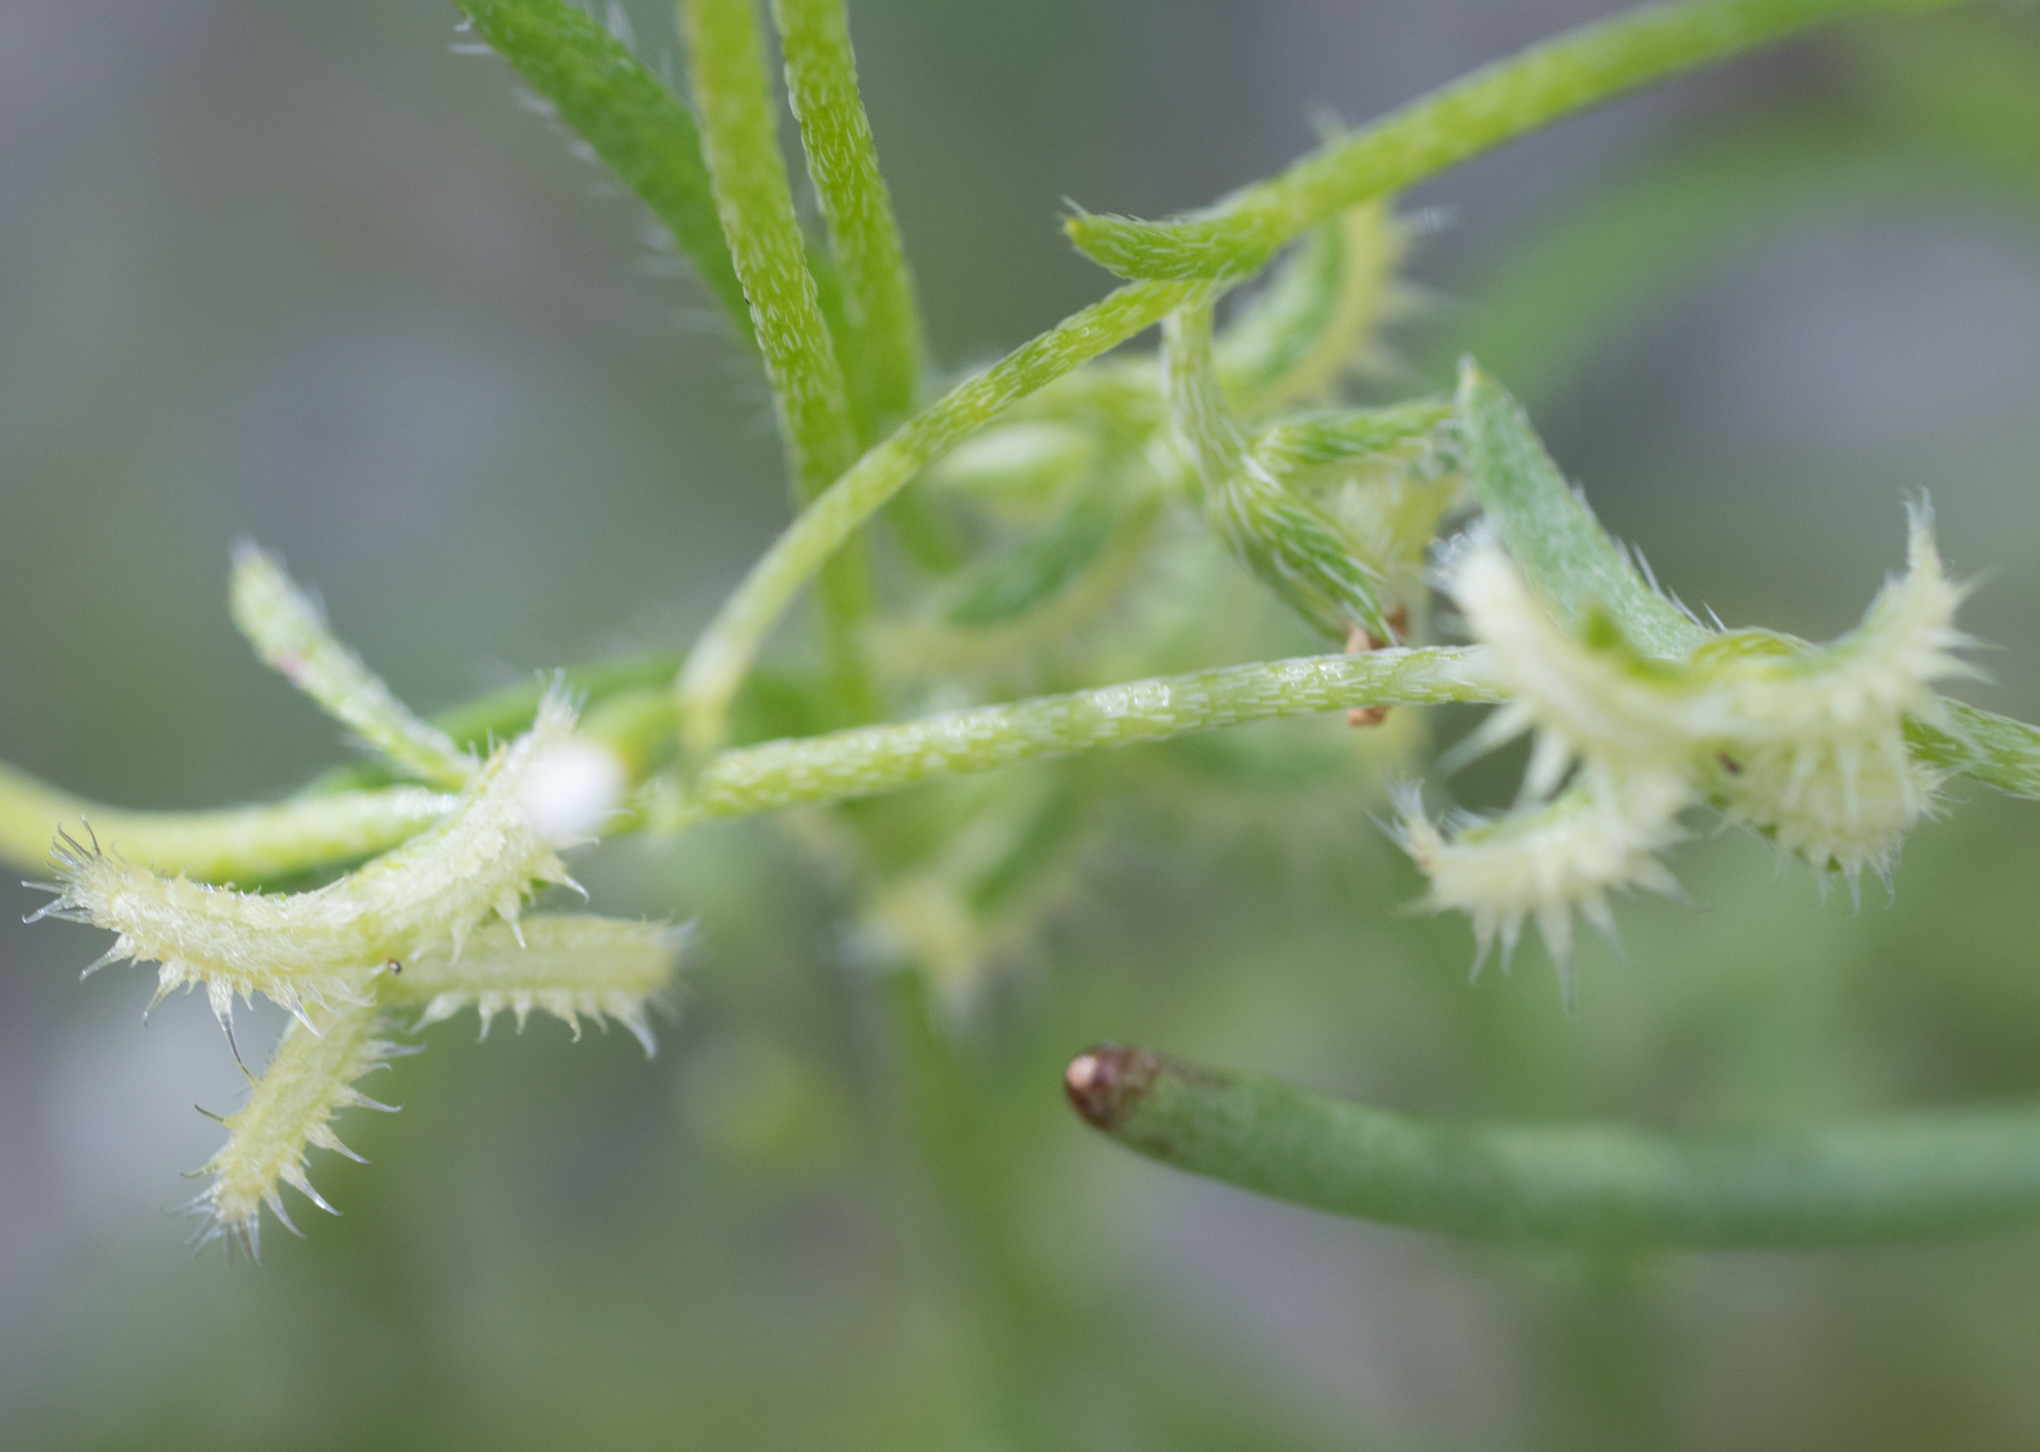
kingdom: Plantae
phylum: Tracheophyta
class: Magnoliopsida
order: Boraginales
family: Boraginaceae
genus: Pectocarya
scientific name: Pectocarya recurvata
